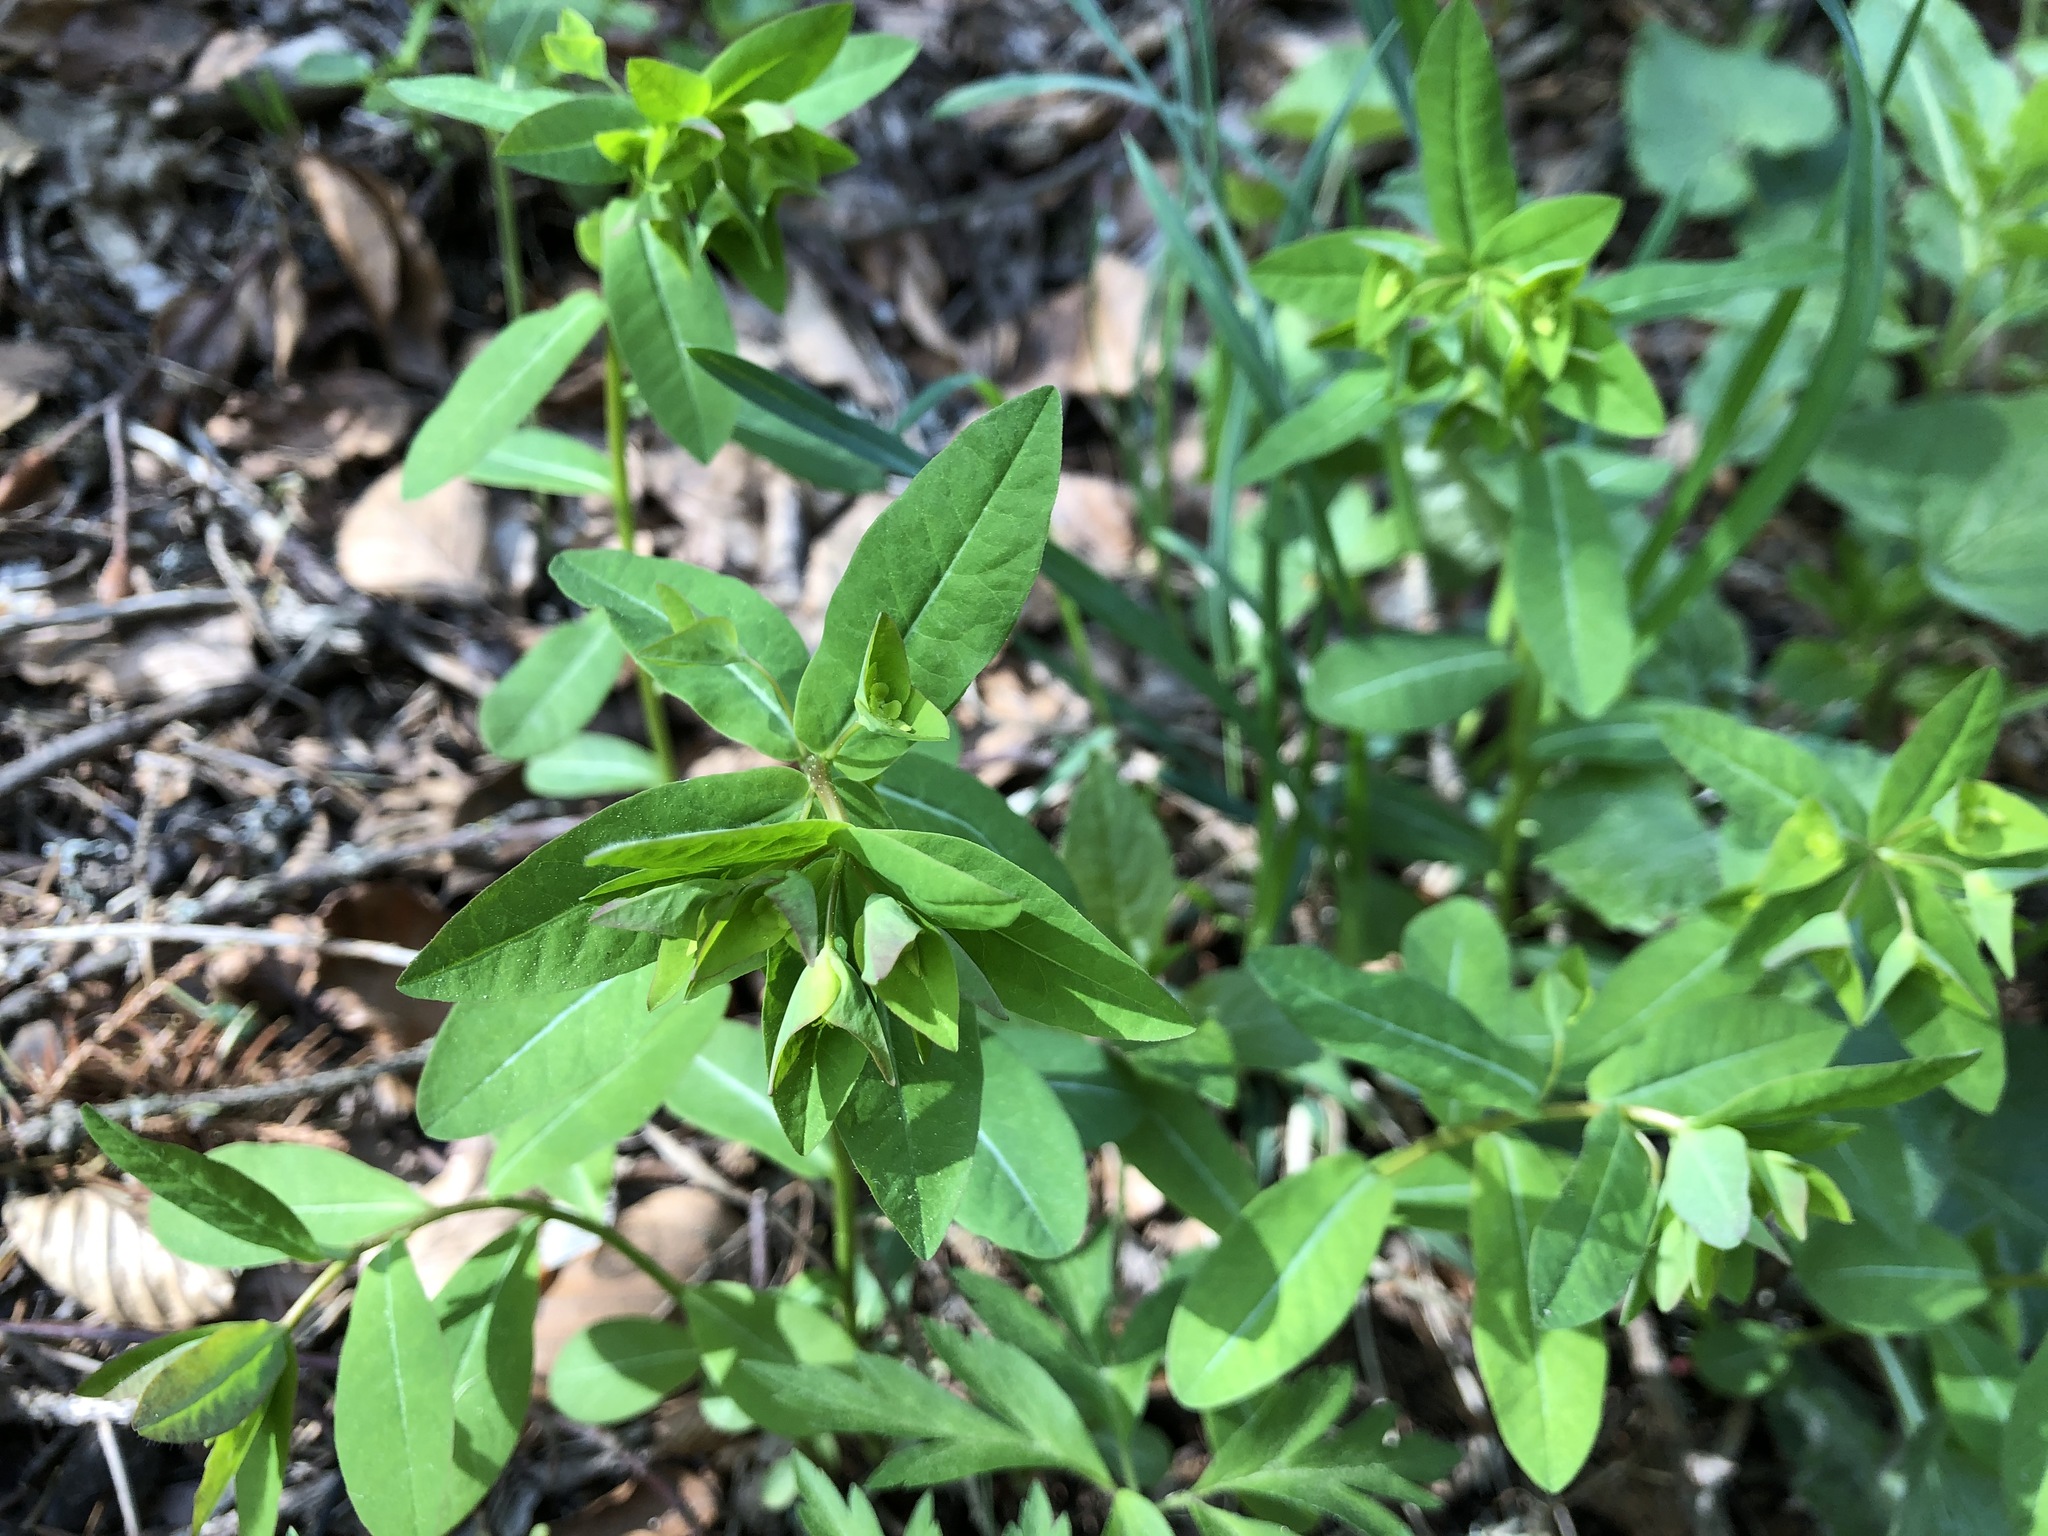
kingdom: Plantae
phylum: Tracheophyta
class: Magnoliopsida
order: Malpighiales
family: Euphorbiaceae
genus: Euphorbia
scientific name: Euphorbia dulcis
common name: Sweet spurge
